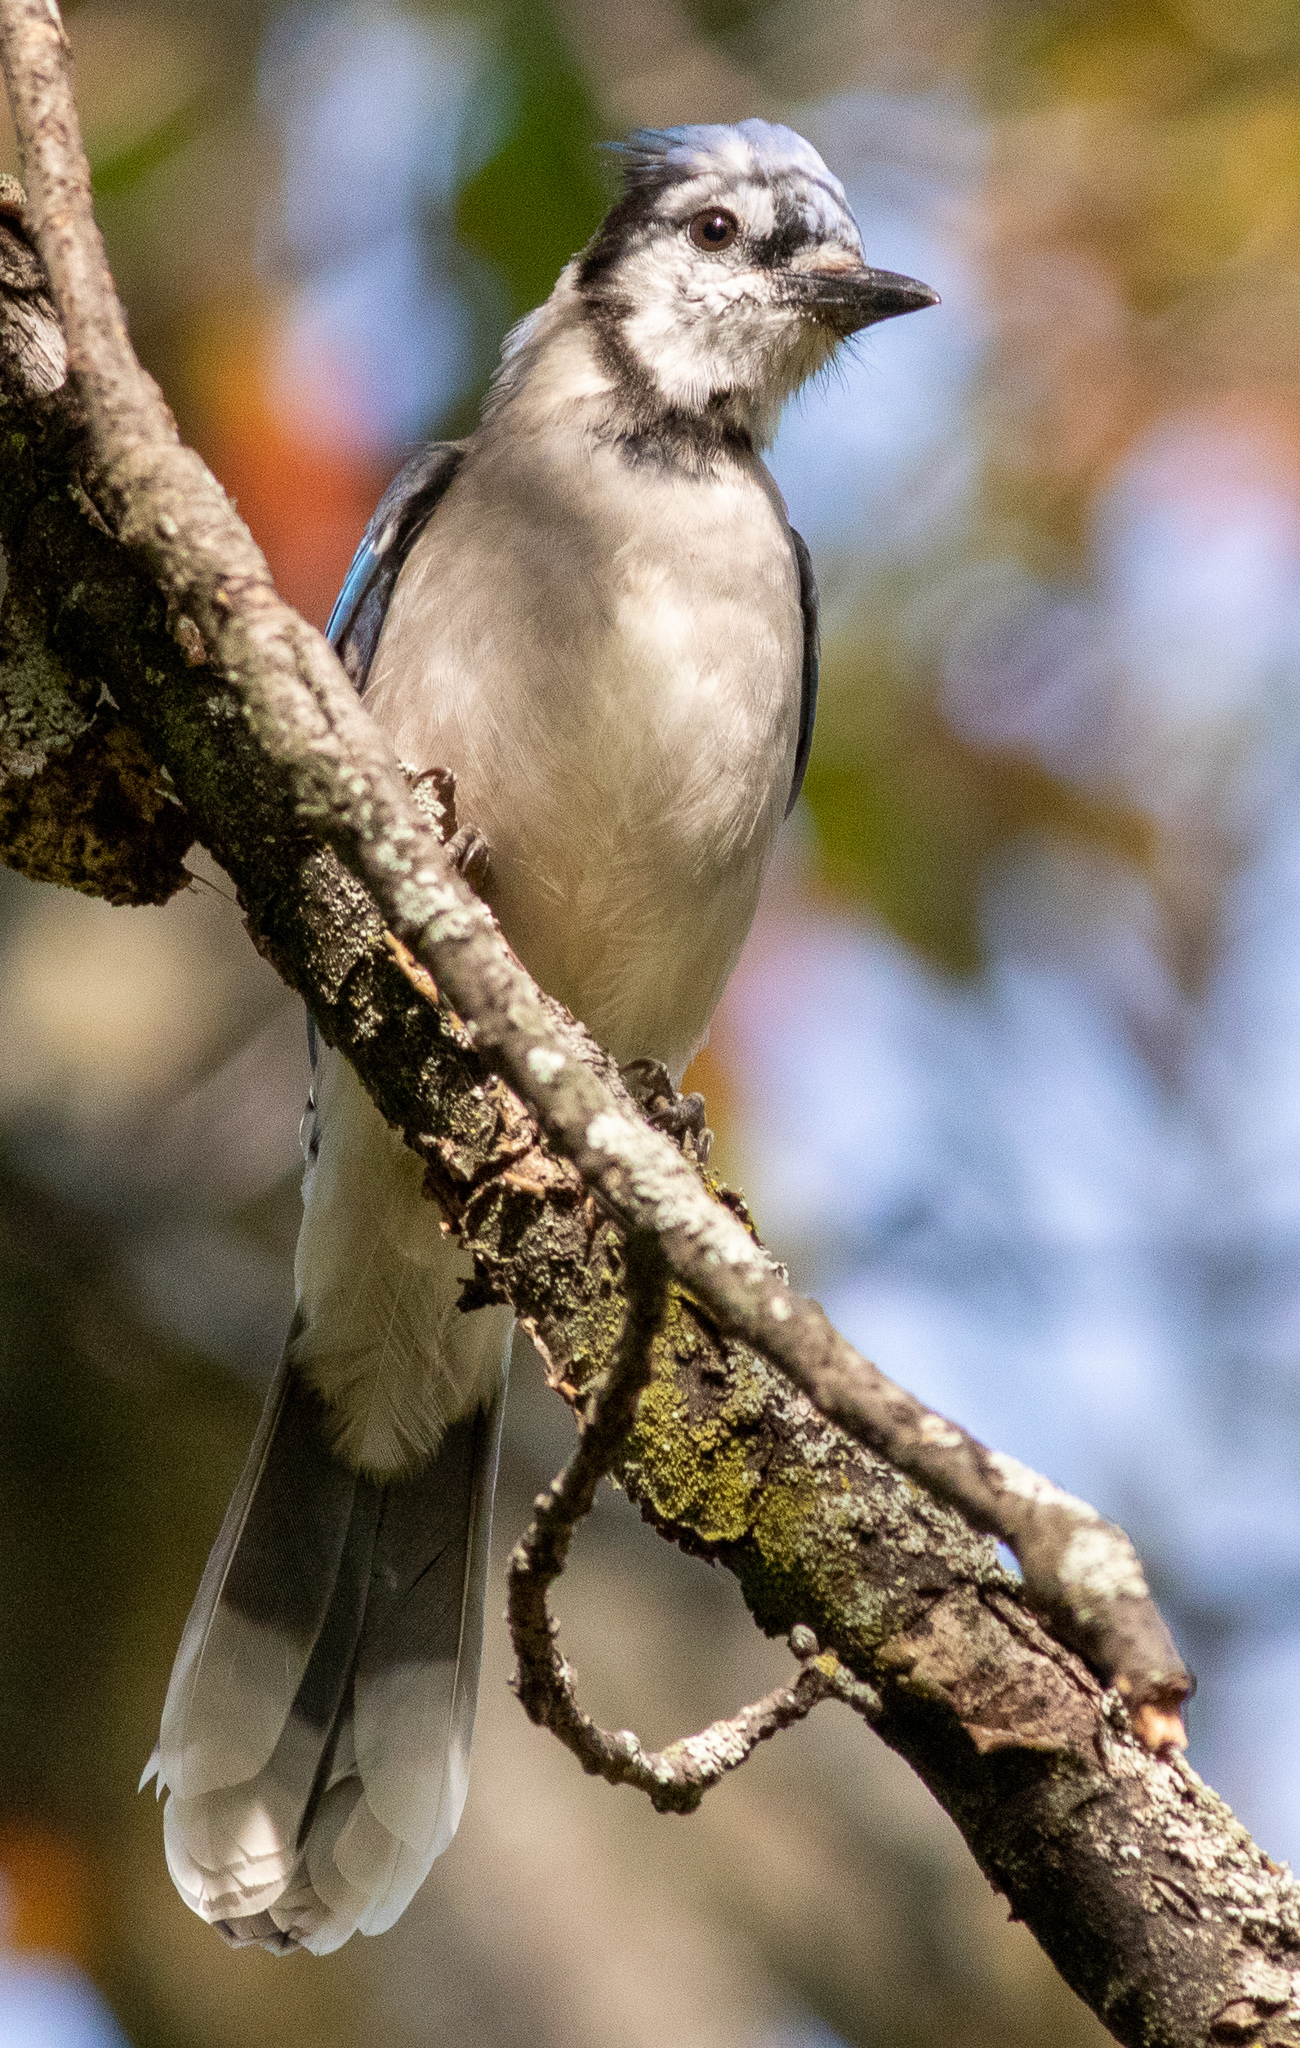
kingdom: Animalia
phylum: Chordata
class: Aves
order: Passeriformes
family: Corvidae
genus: Cyanocitta
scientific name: Cyanocitta cristata
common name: Blue jay
